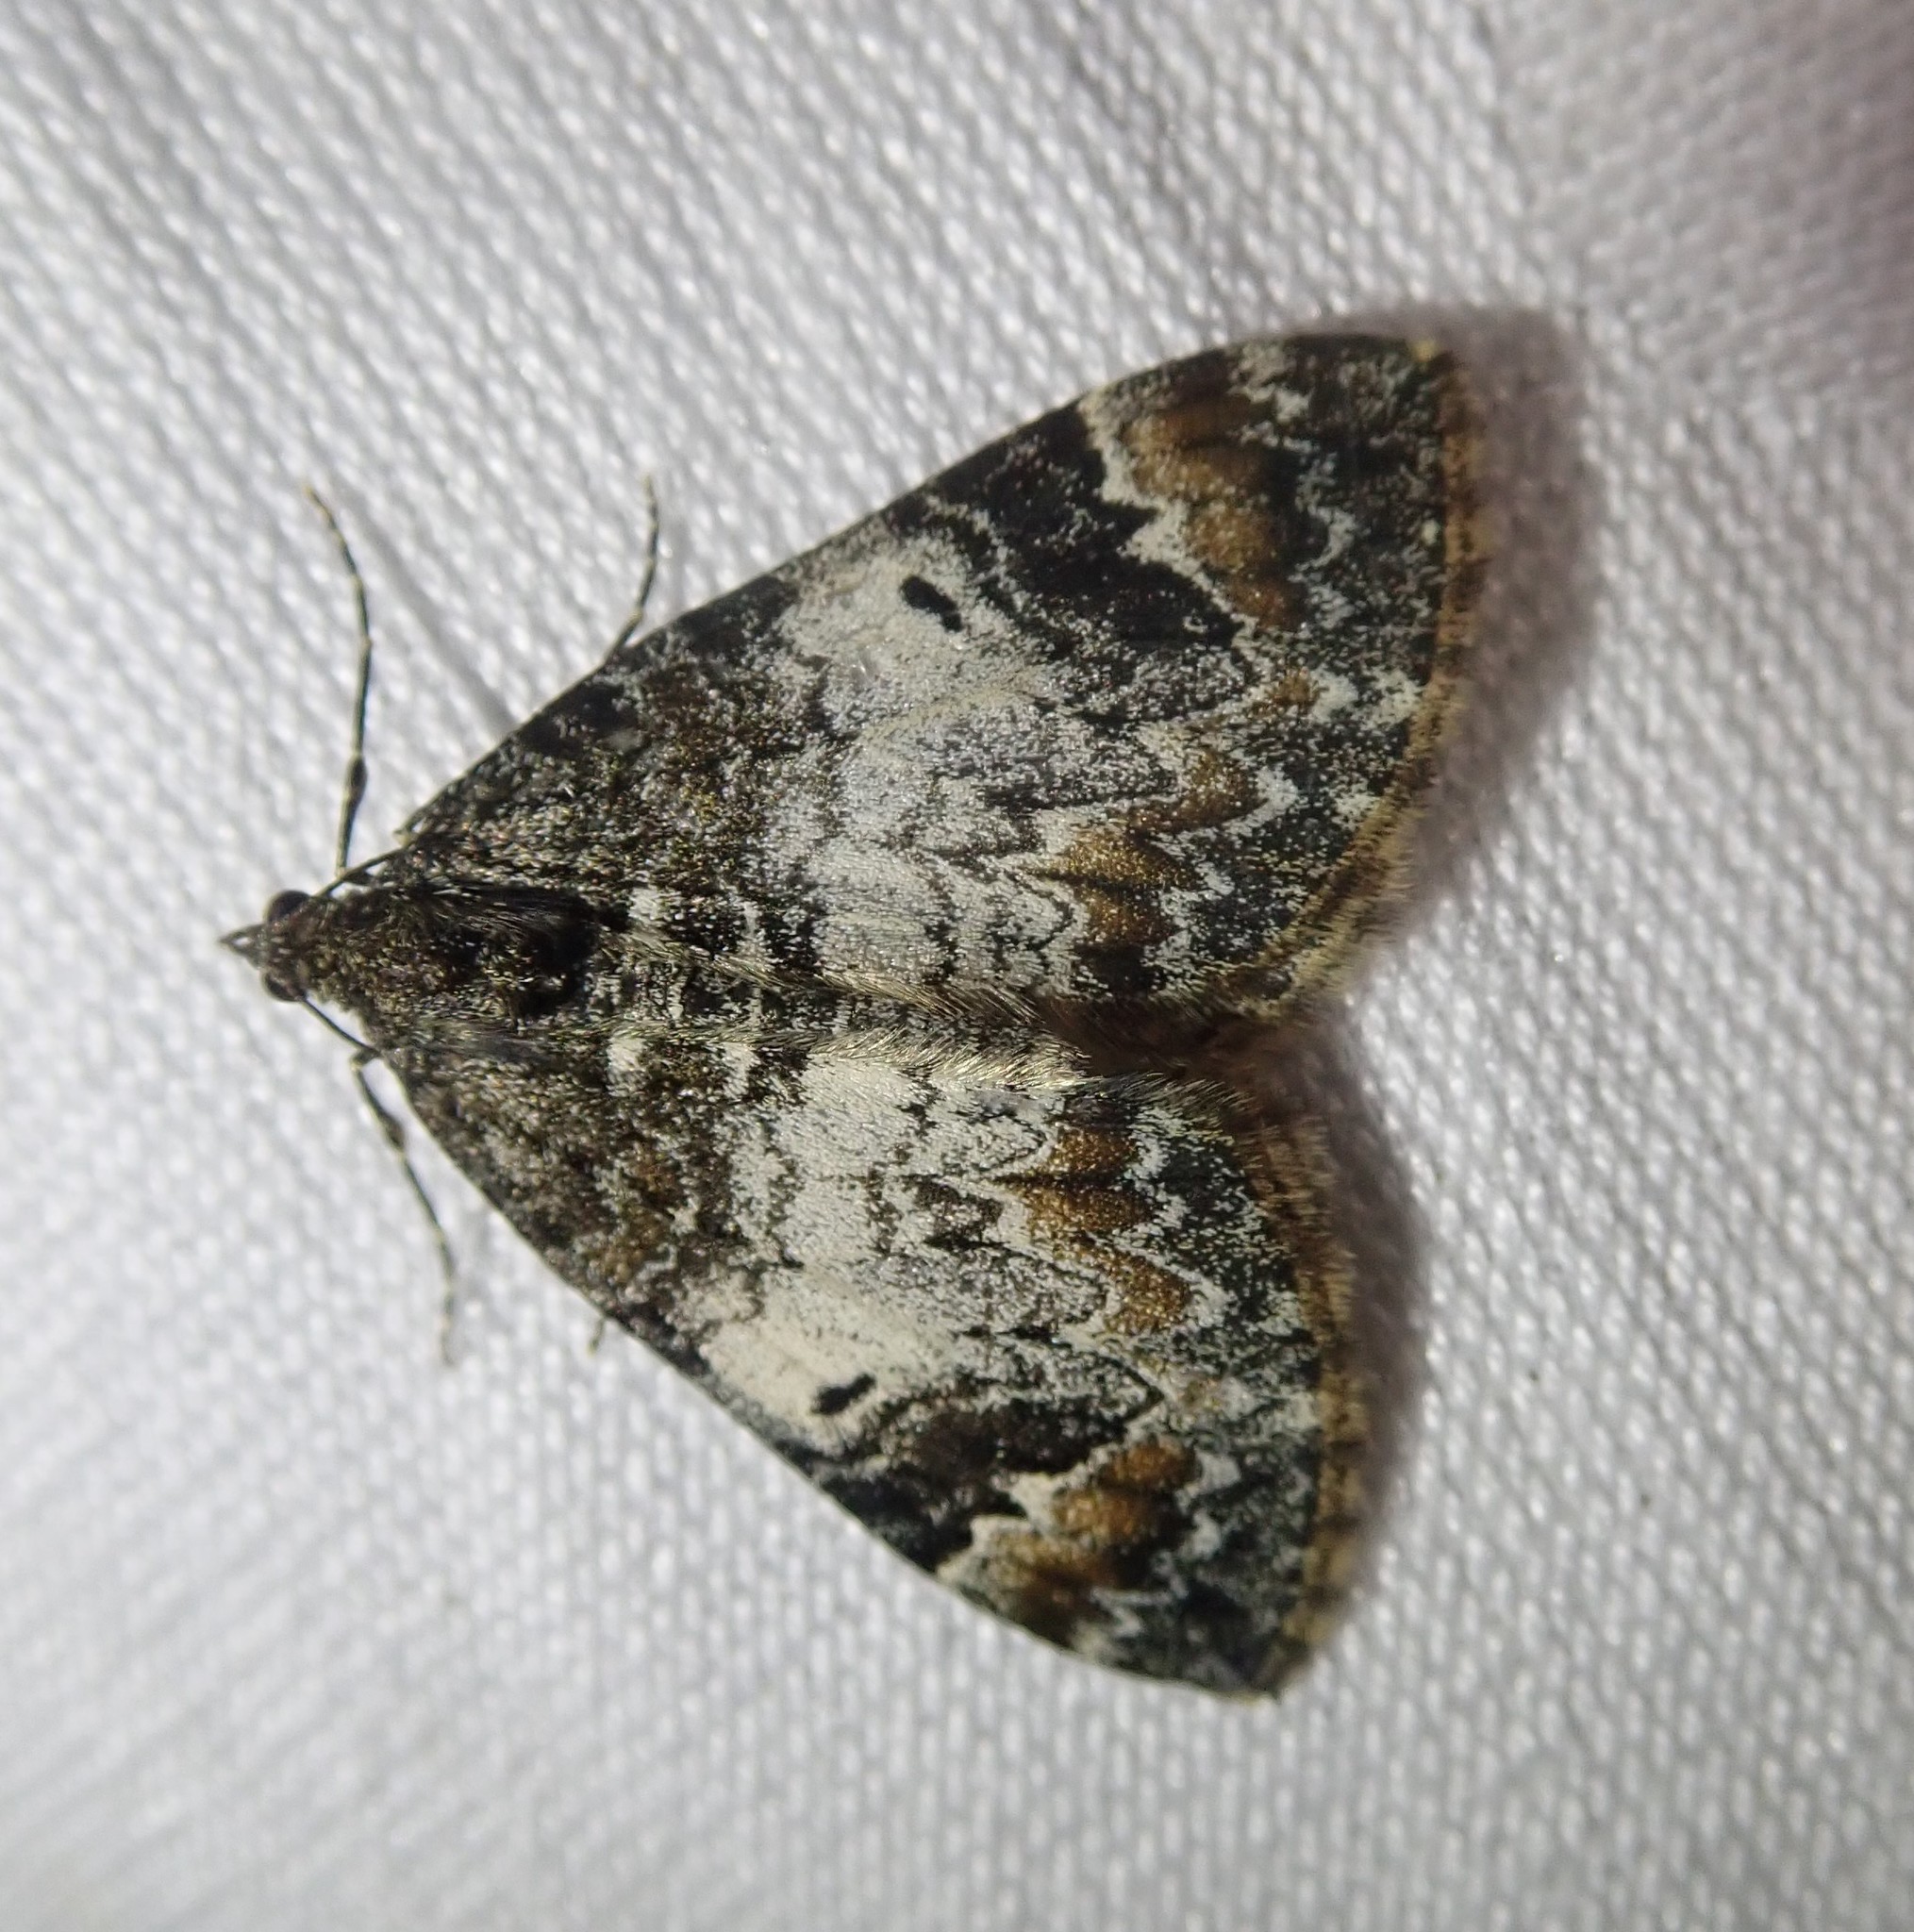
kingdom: Animalia
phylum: Arthropoda
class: Insecta
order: Lepidoptera
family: Geometridae
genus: Dysstroma
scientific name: Dysstroma truncata
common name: Common marbled carpet
